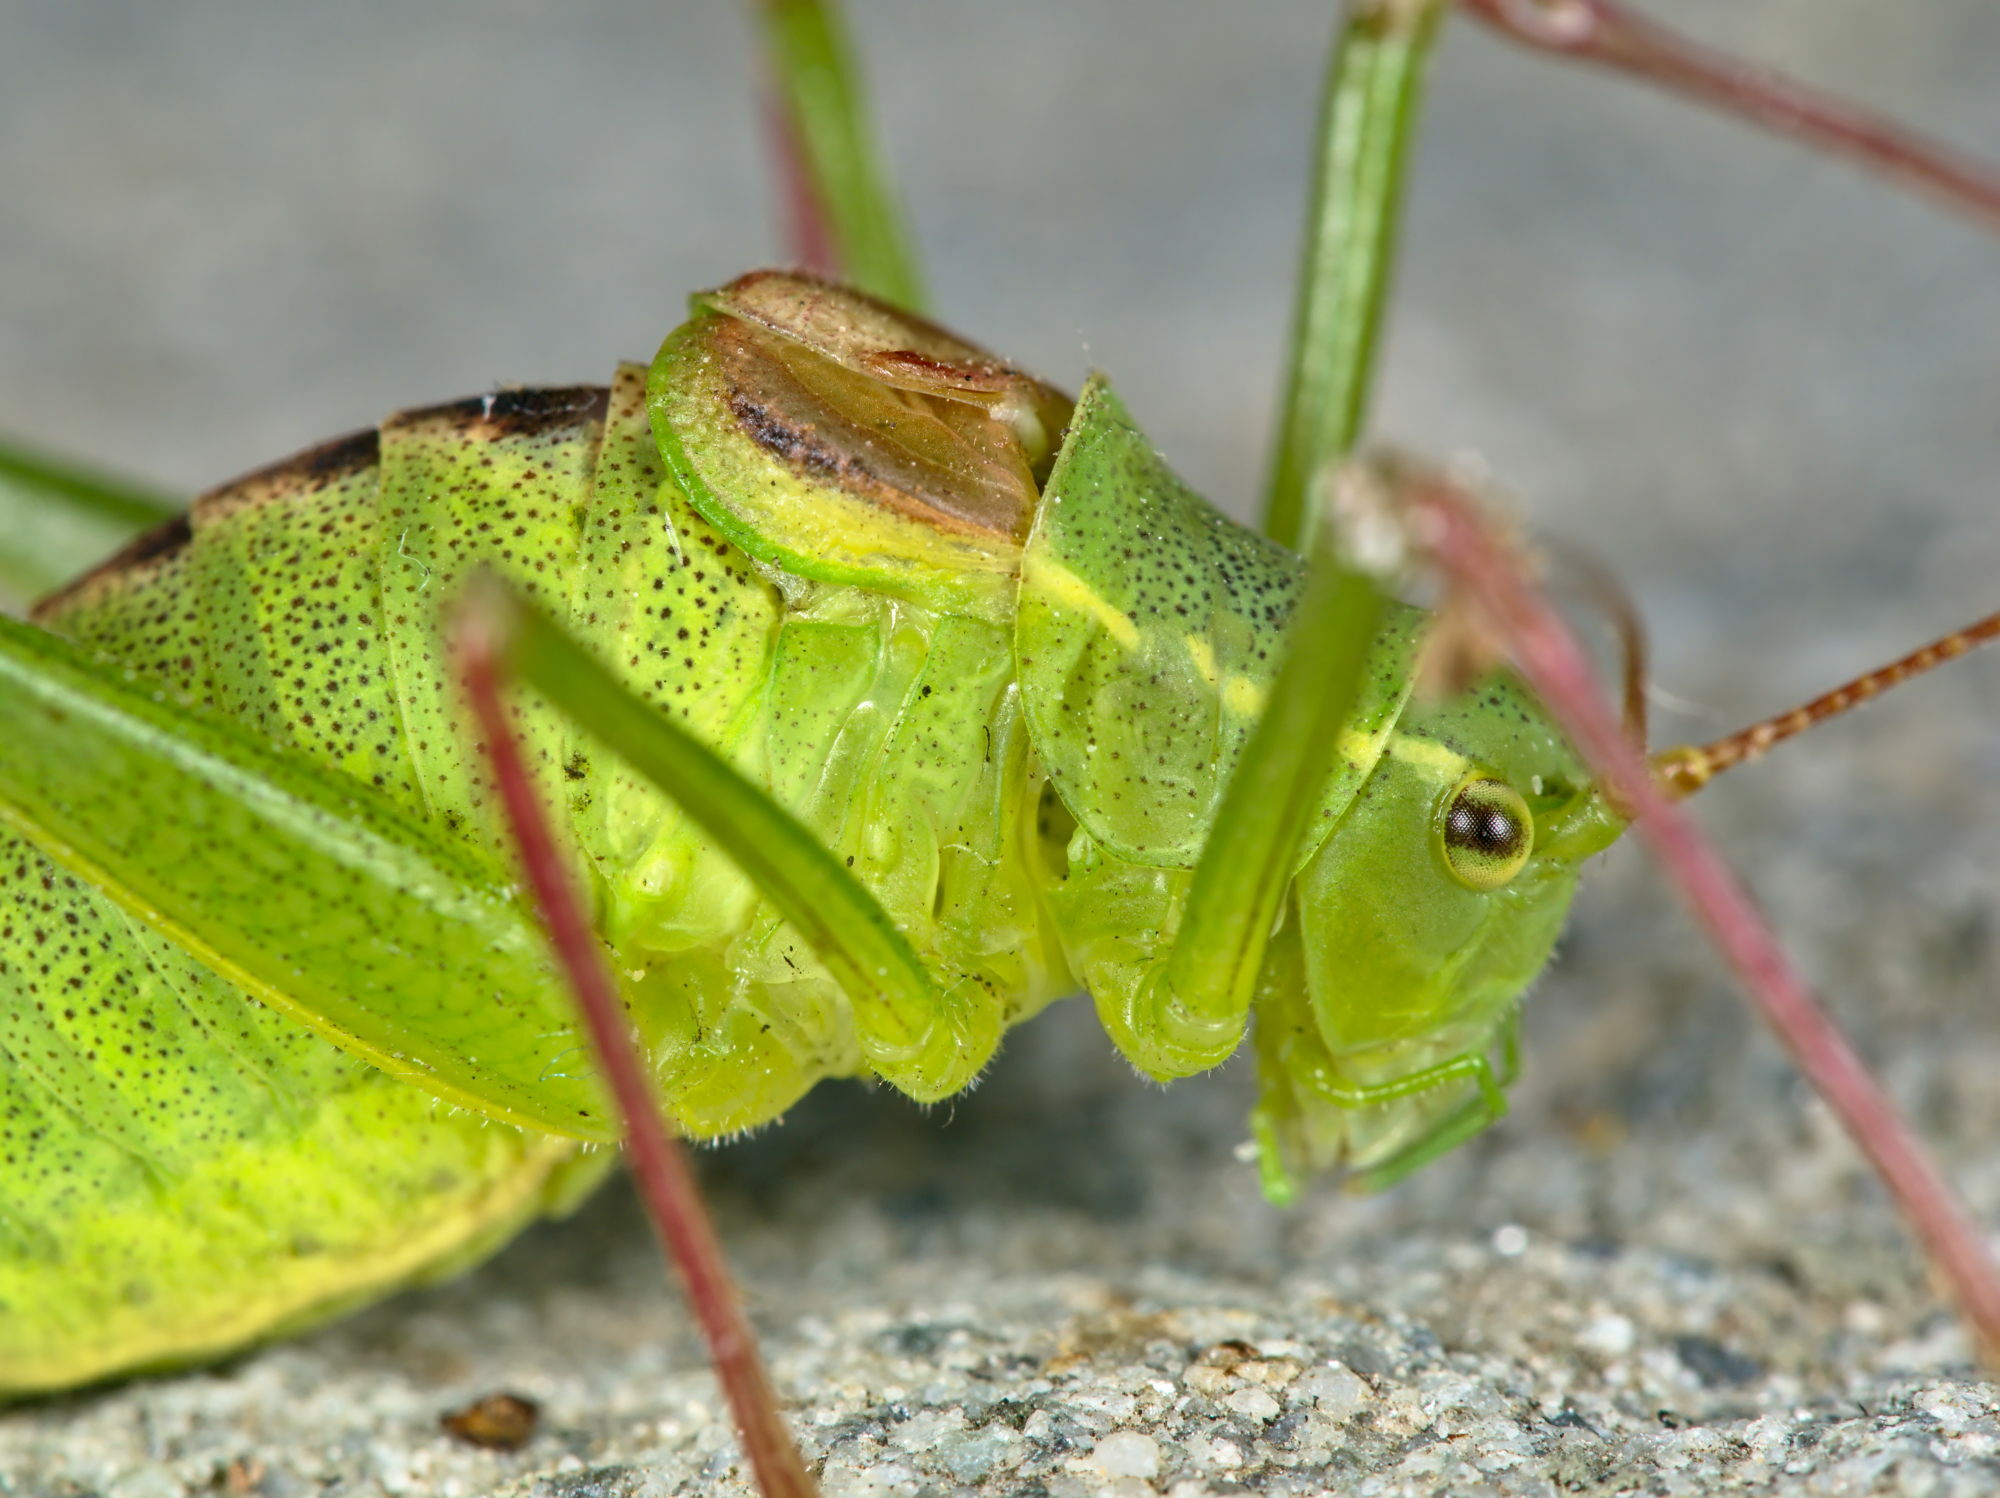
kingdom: Animalia
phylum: Arthropoda
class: Insecta
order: Orthoptera
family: Tettigoniidae
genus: Leptophyes
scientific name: Leptophyes laticauda
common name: Long-tailed speckled bush-cricket
